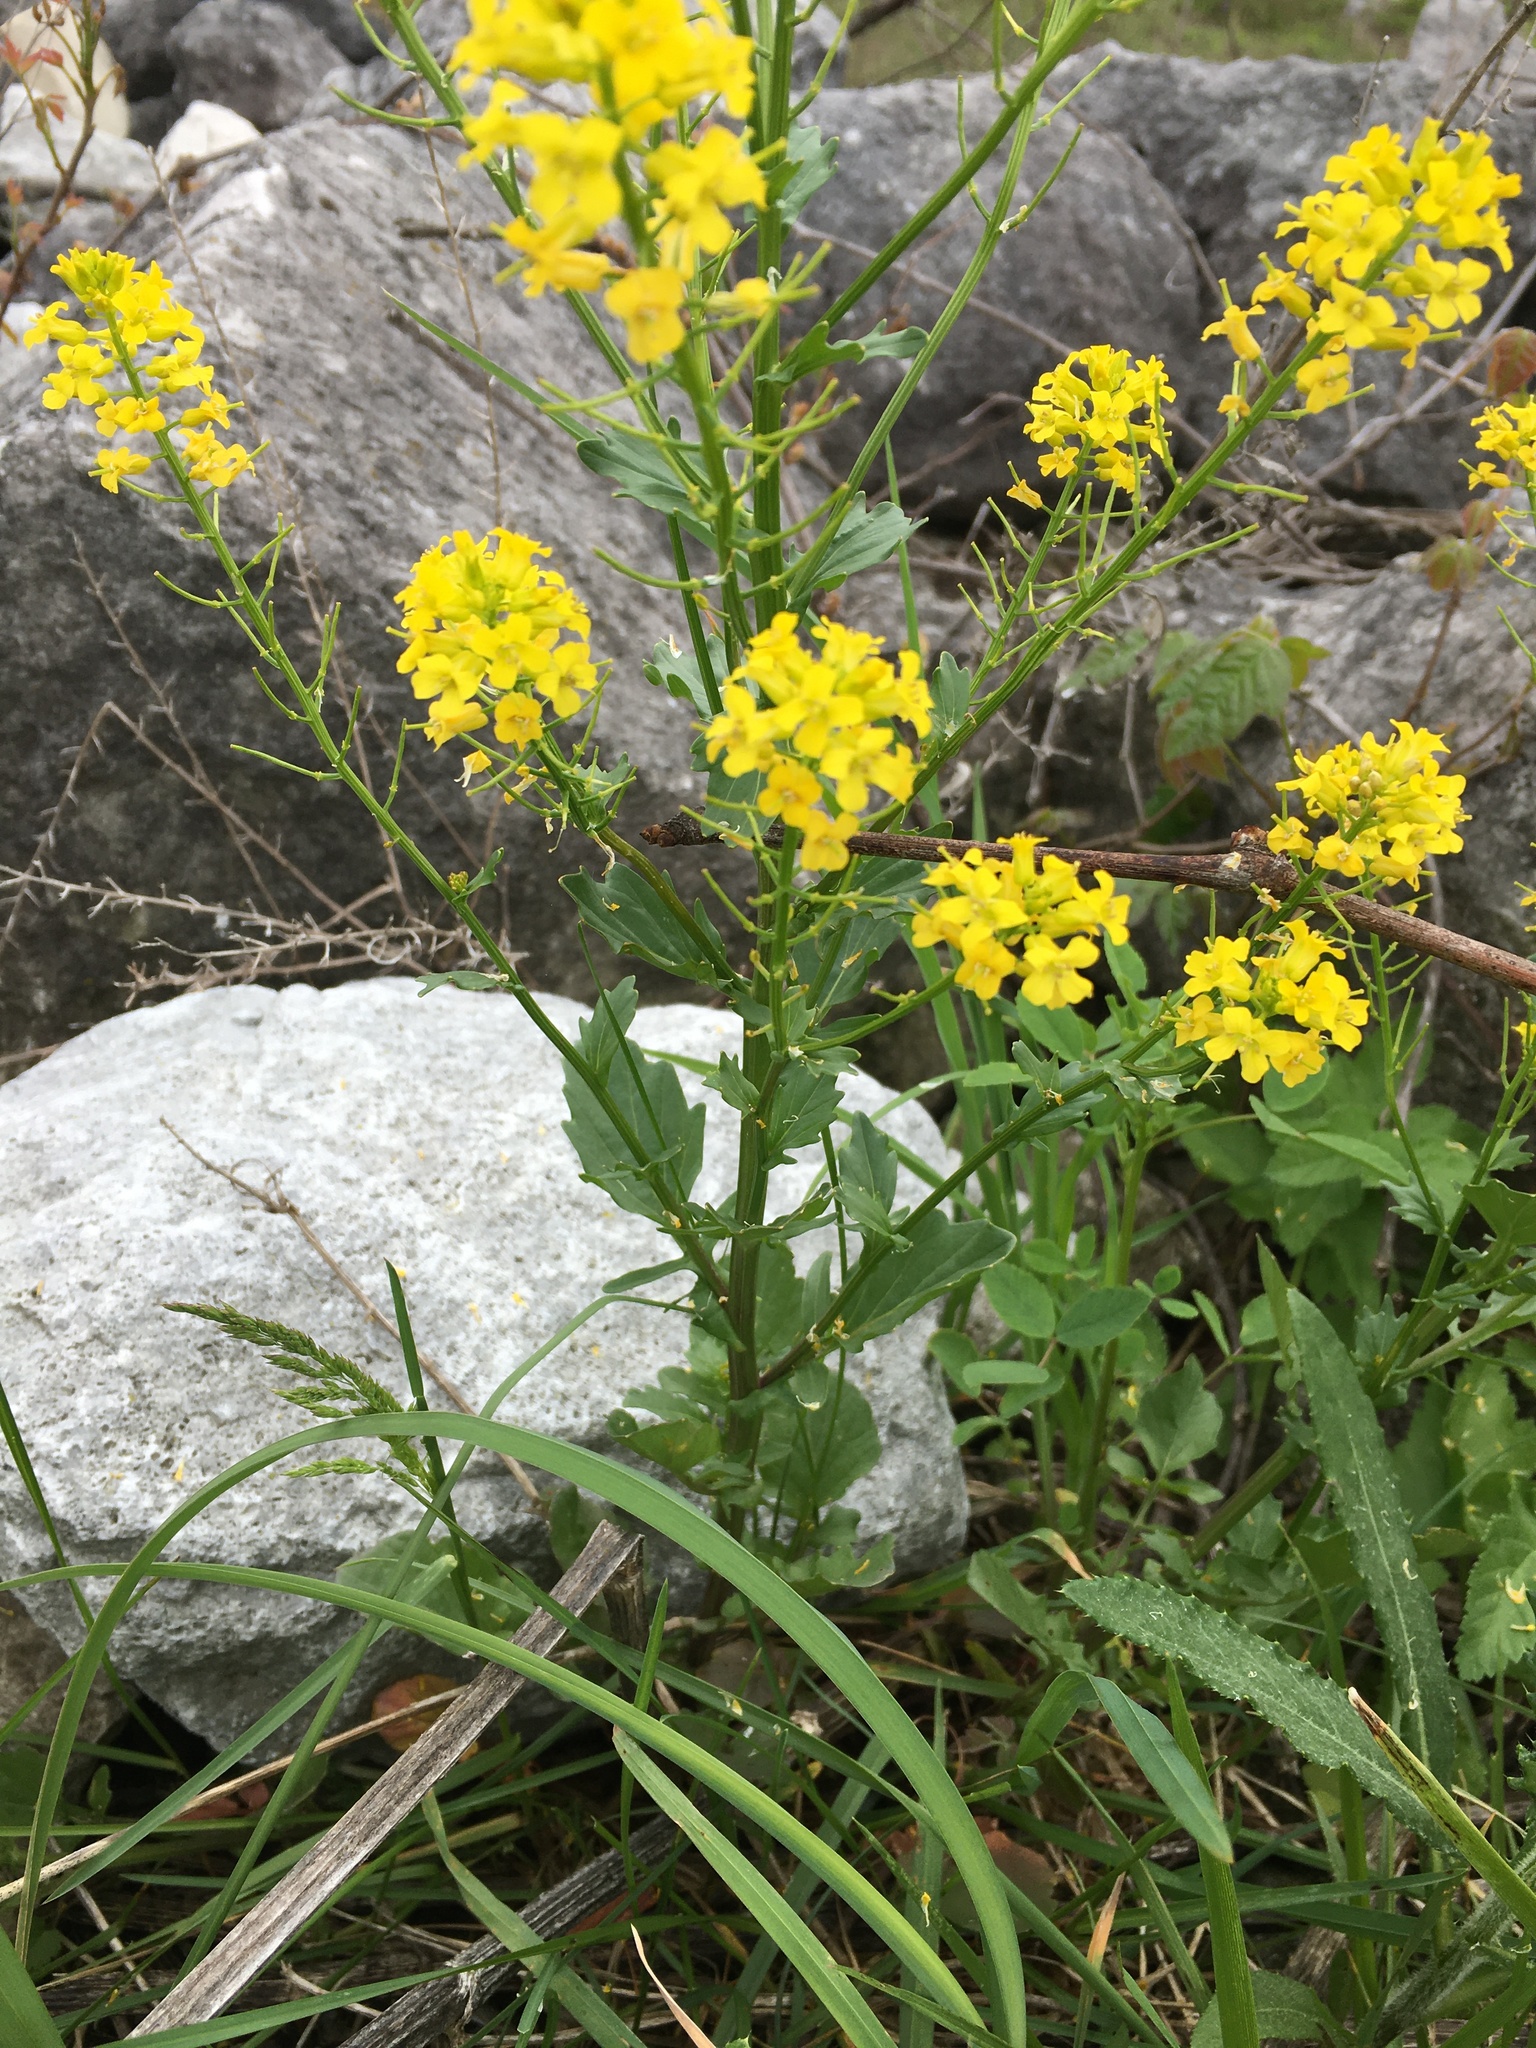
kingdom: Plantae
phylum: Tracheophyta
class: Magnoliopsida
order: Brassicales
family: Brassicaceae
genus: Barbarea
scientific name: Barbarea vulgaris
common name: Cressy-greens
